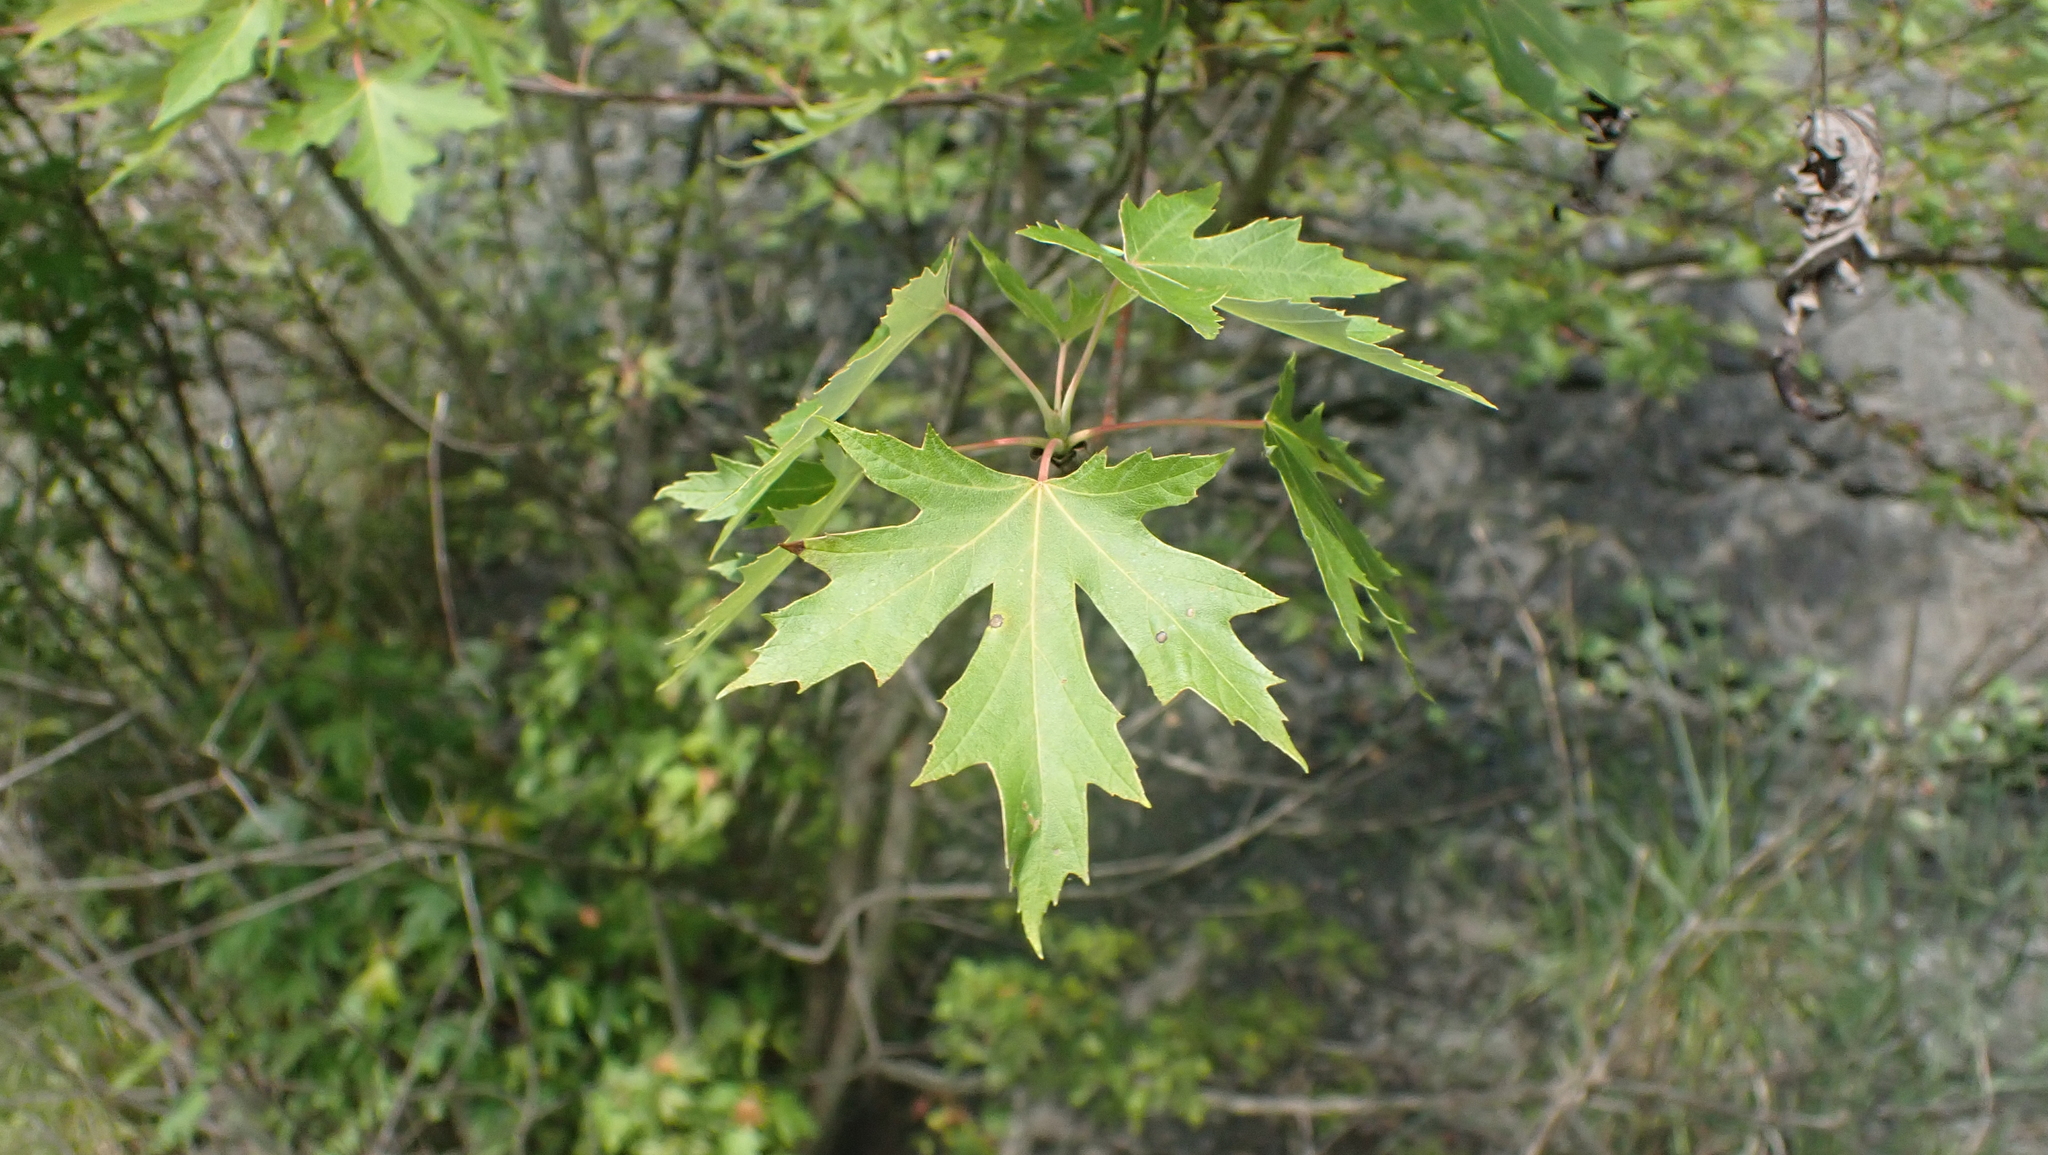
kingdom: Plantae
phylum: Tracheophyta
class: Magnoliopsida
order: Sapindales
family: Sapindaceae
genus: Acer
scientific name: Acer saccharinum
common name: Silver maple
